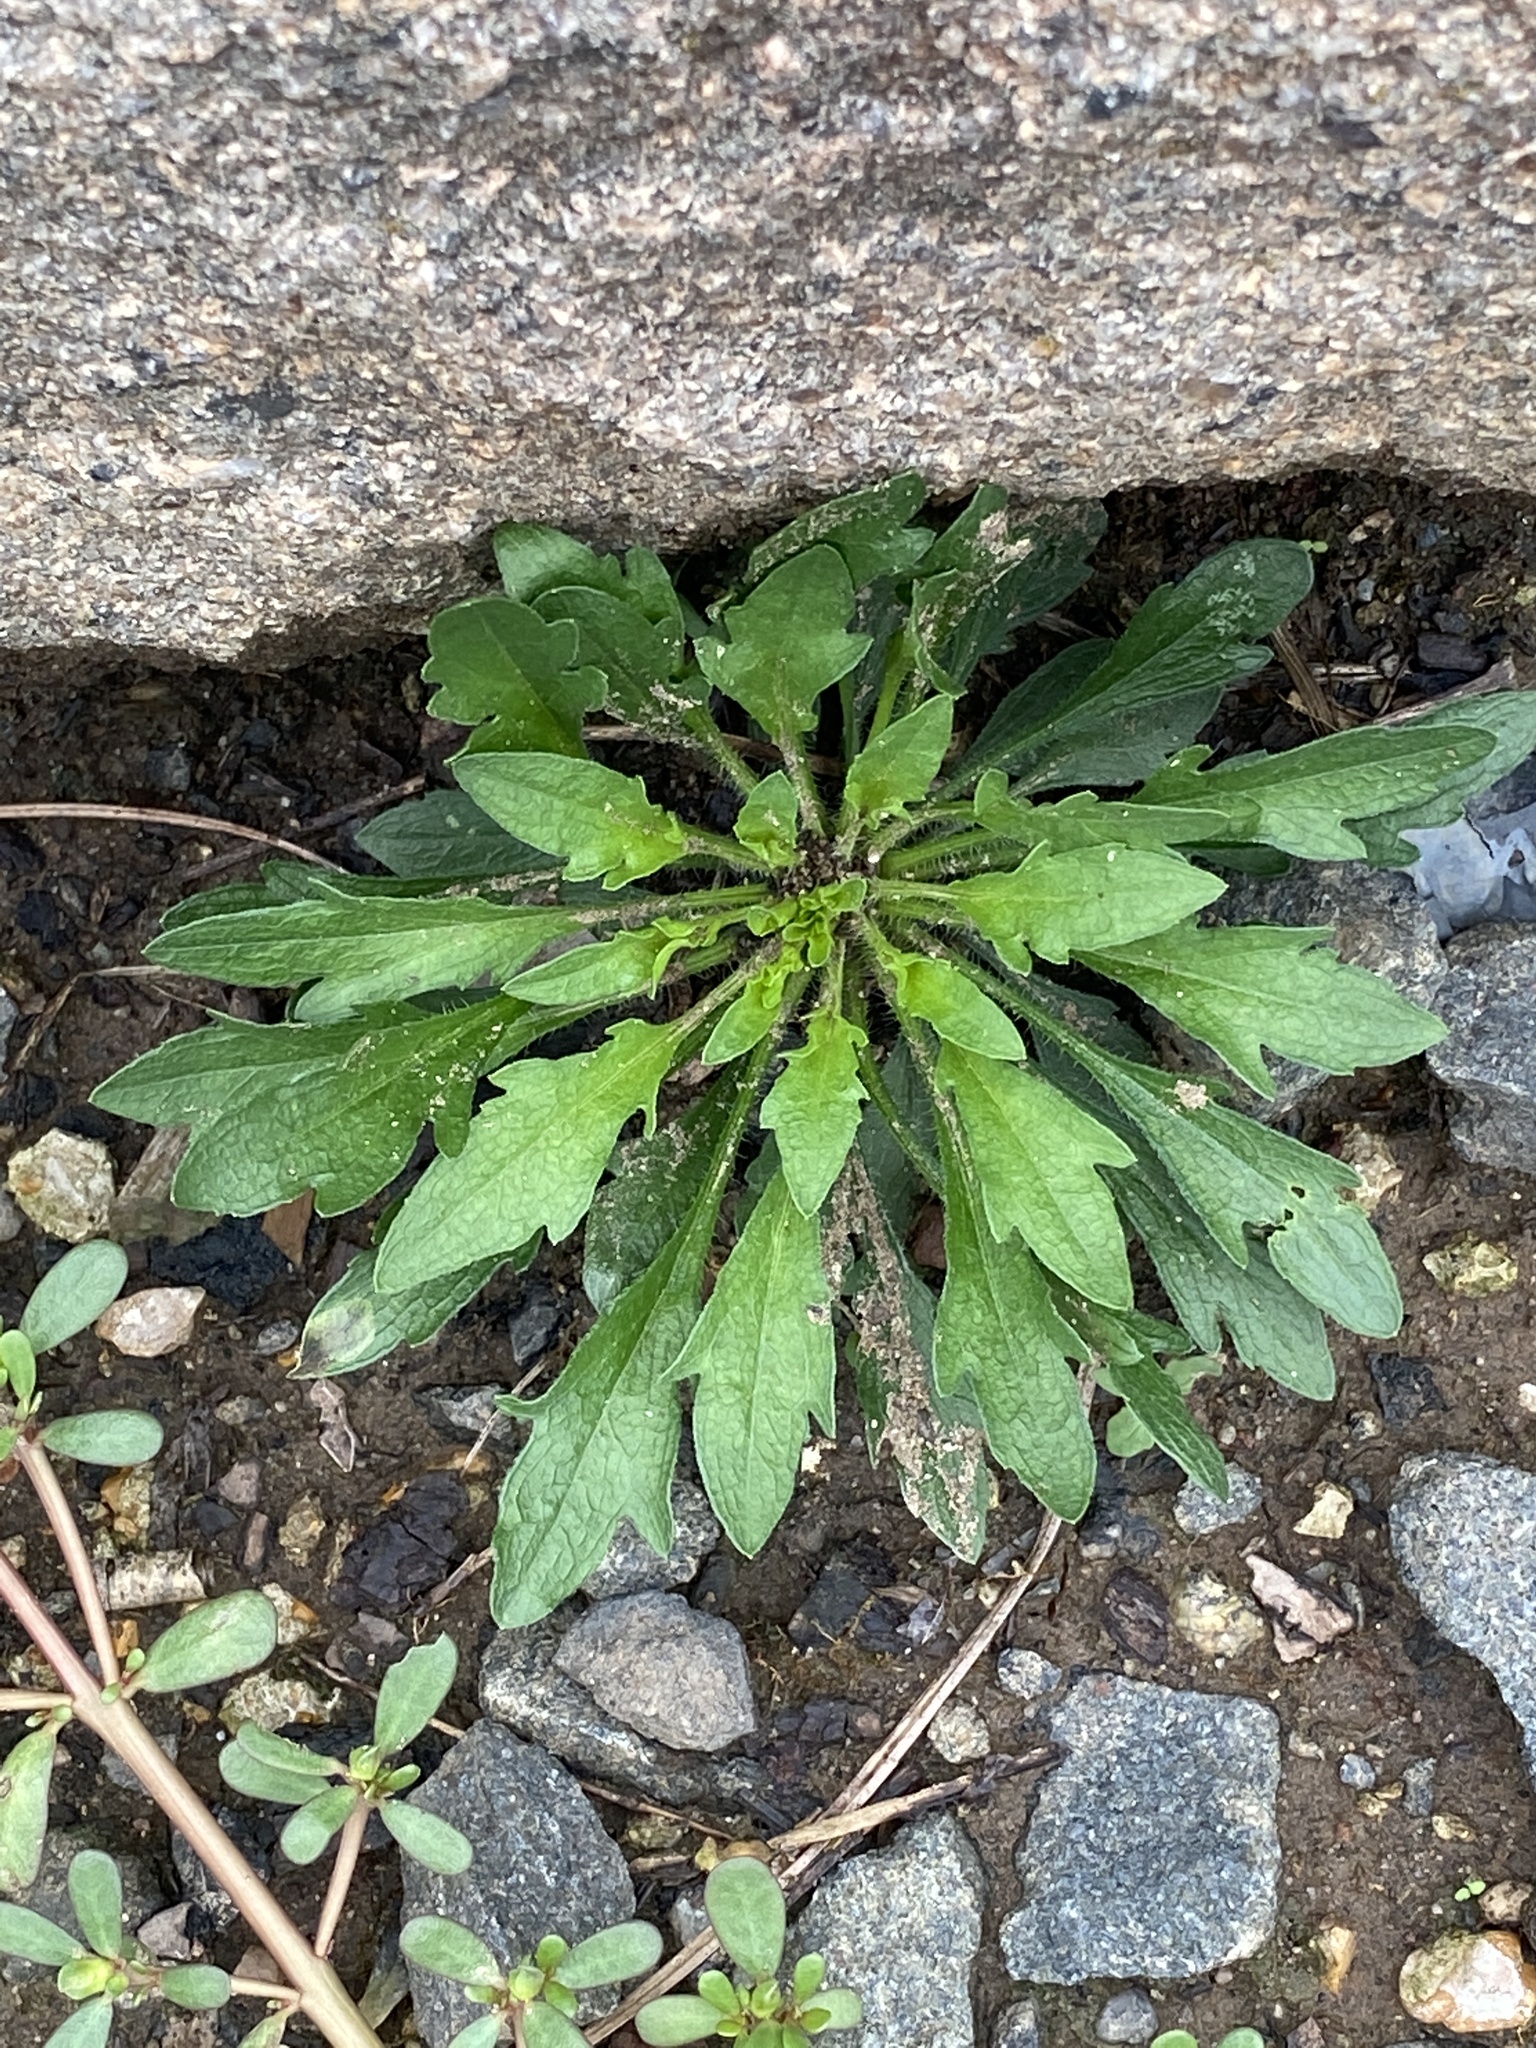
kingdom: Plantae
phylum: Tracheophyta
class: Magnoliopsida
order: Asterales
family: Asteraceae
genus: Erigeron
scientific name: Erigeron canadensis
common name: Canadian fleabane
